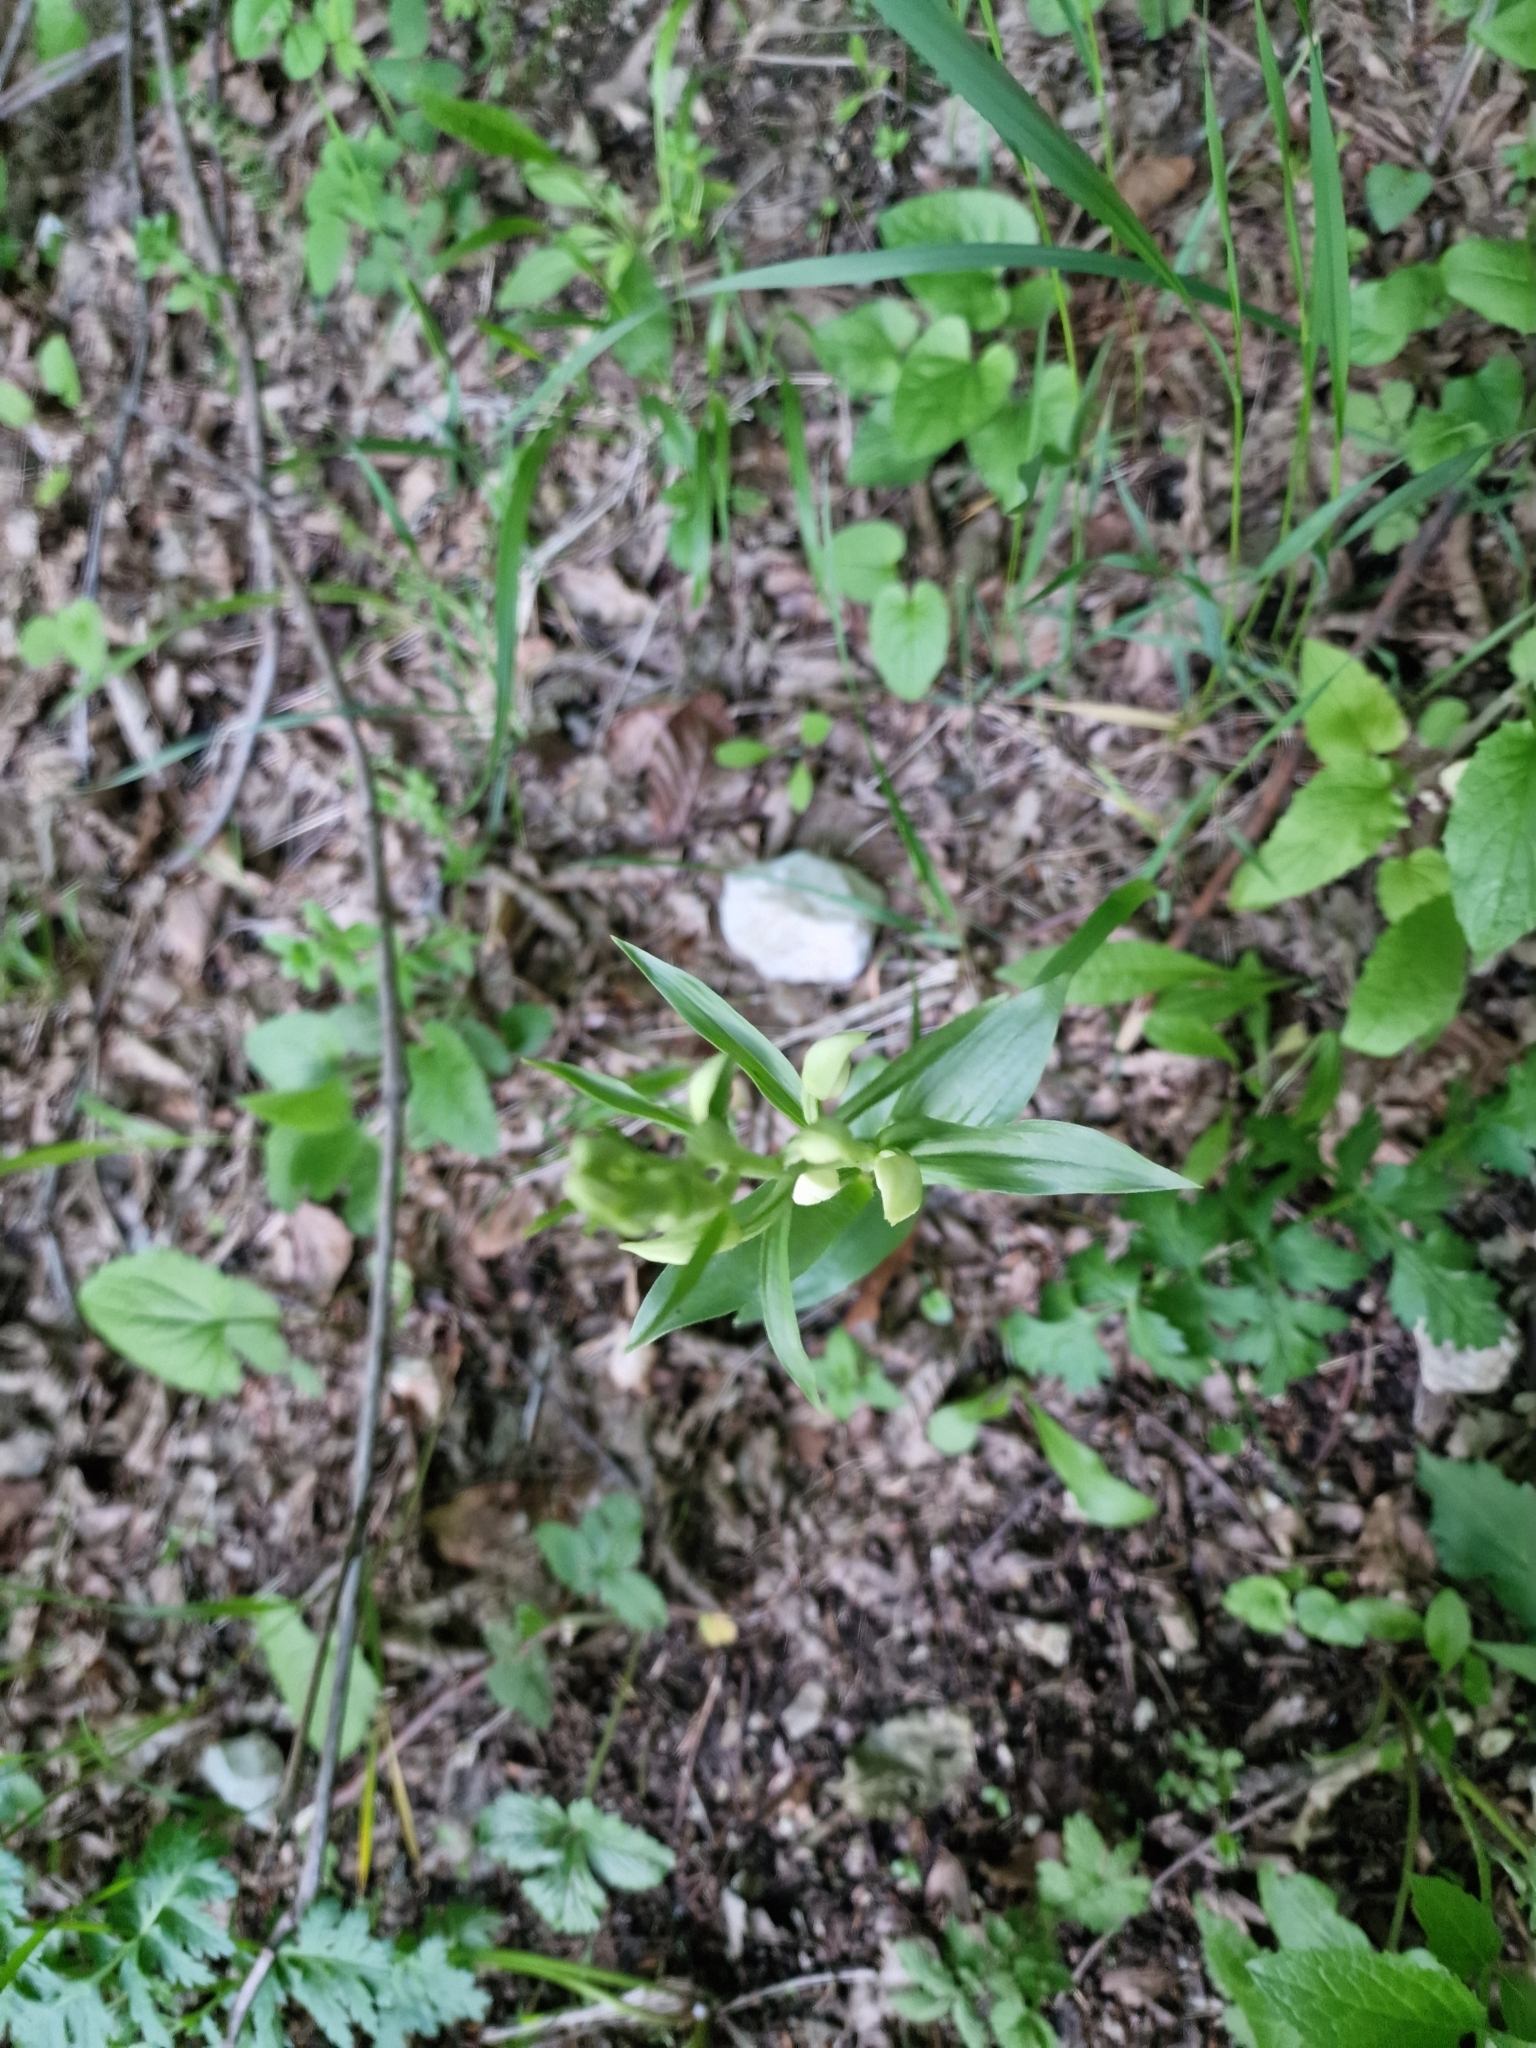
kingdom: Plantae
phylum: Tracheophyta
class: Liliopsida
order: Asparagales
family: Orchidaceae
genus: Cephalanthera
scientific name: Cephalanthera damasonium
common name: White helleborine
